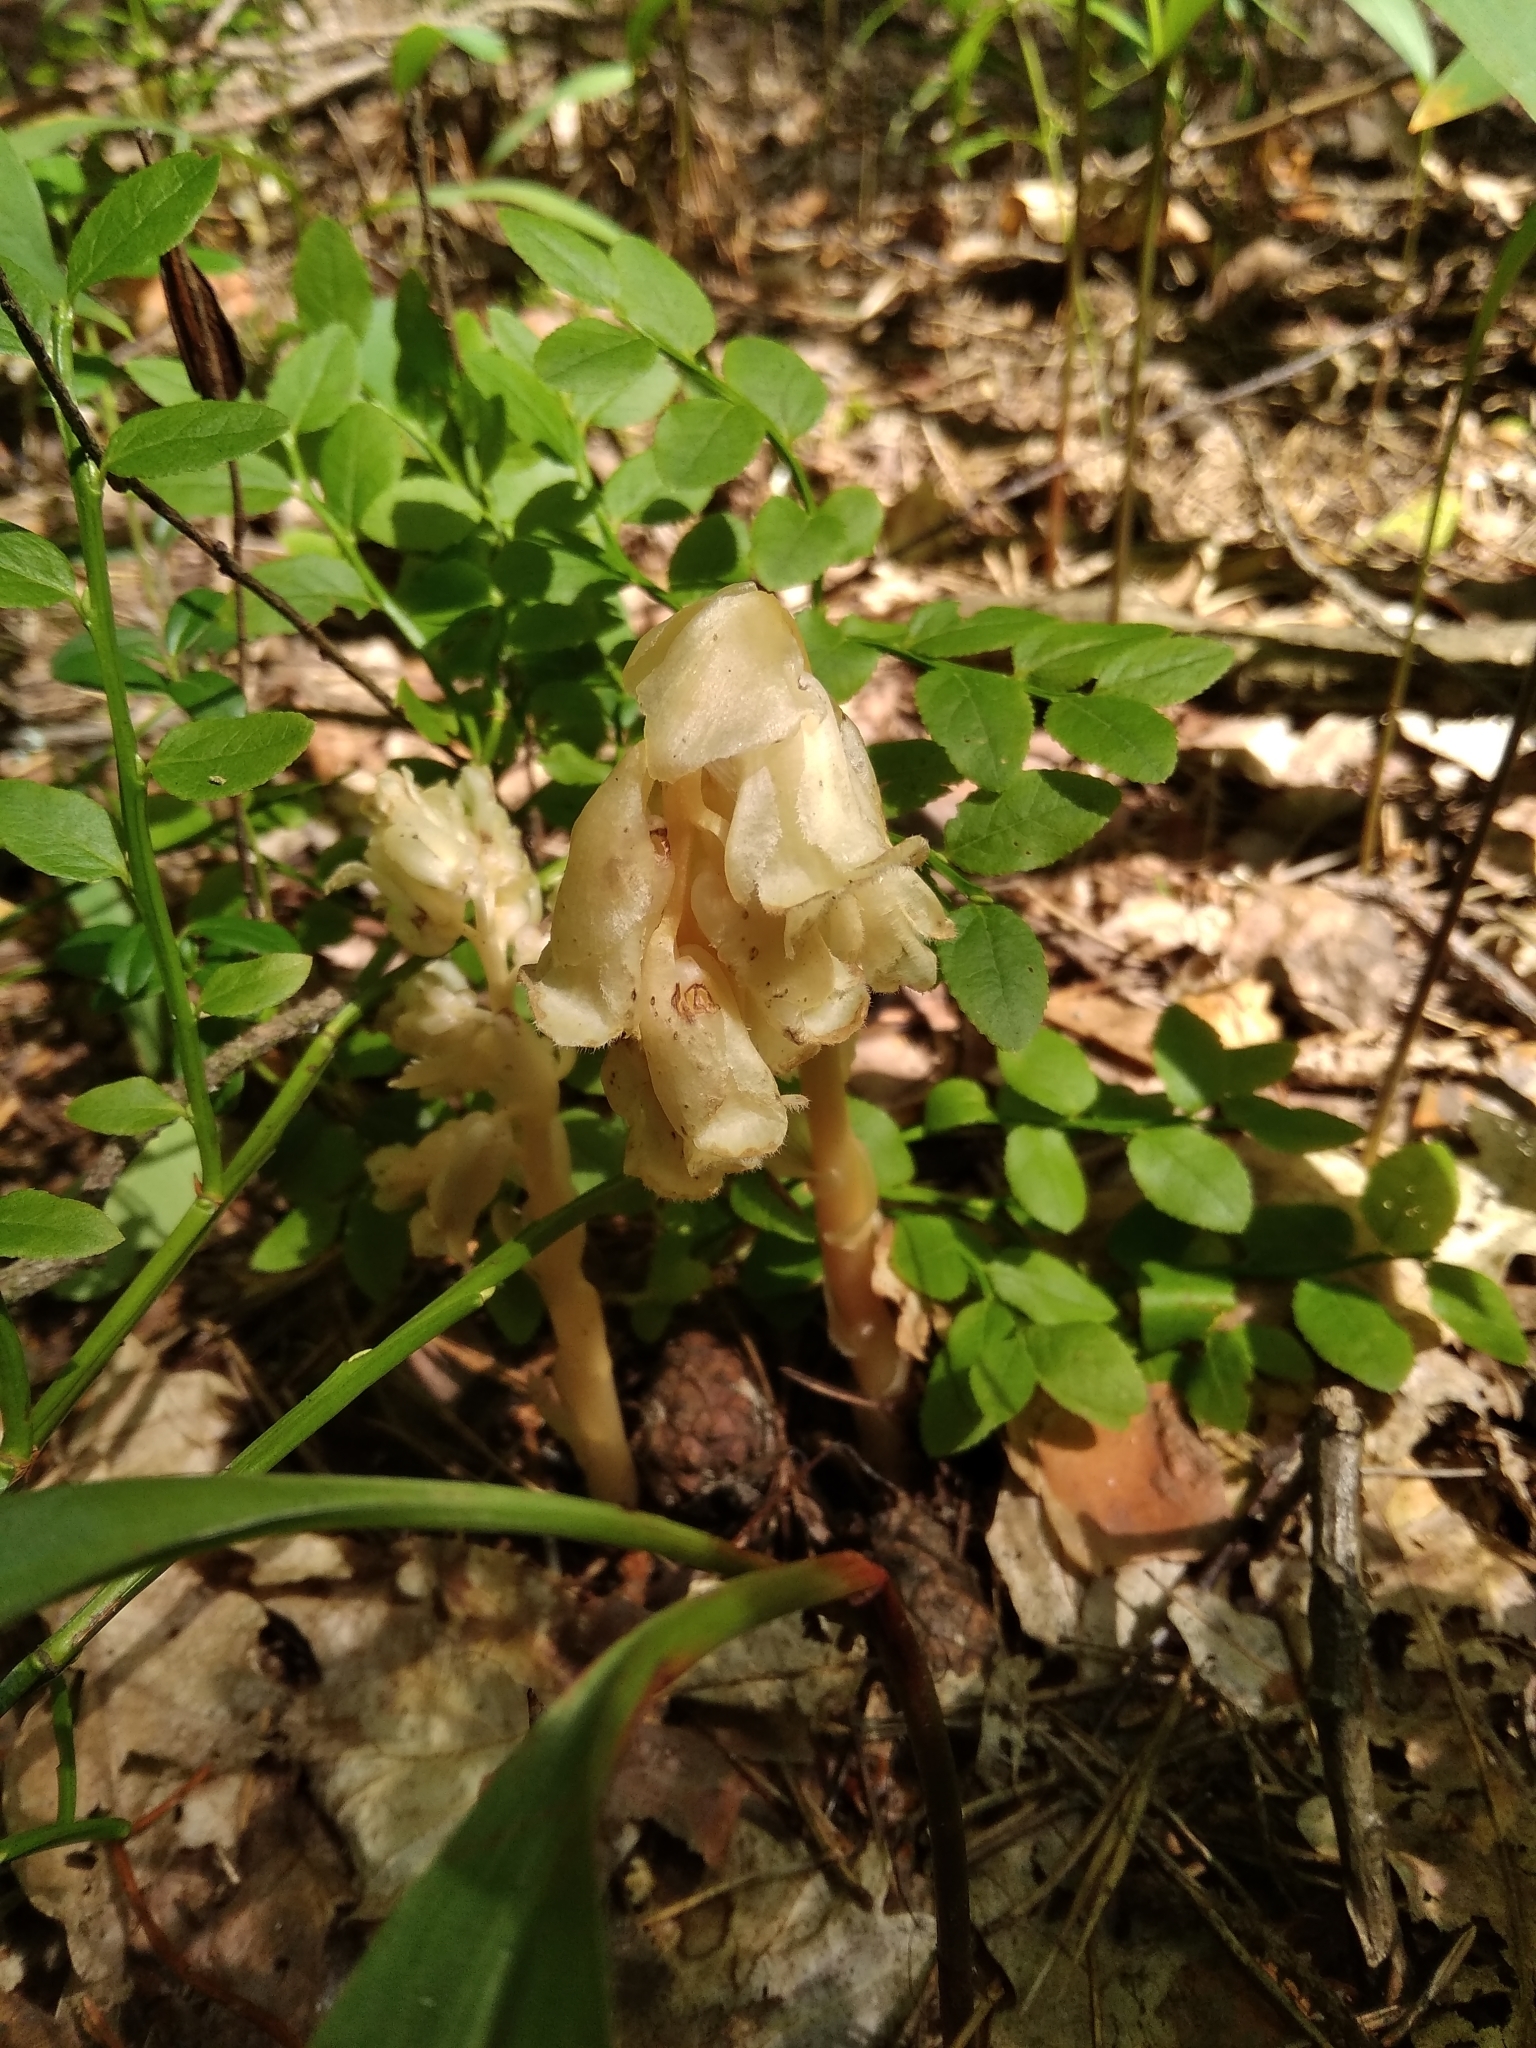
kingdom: Plantae
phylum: Tracheophyta
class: Magnoliopsida
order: Ericales
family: Ericaceae
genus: Hypopitys
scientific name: Hypopitys monotropa
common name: Yellow bird's-nest
